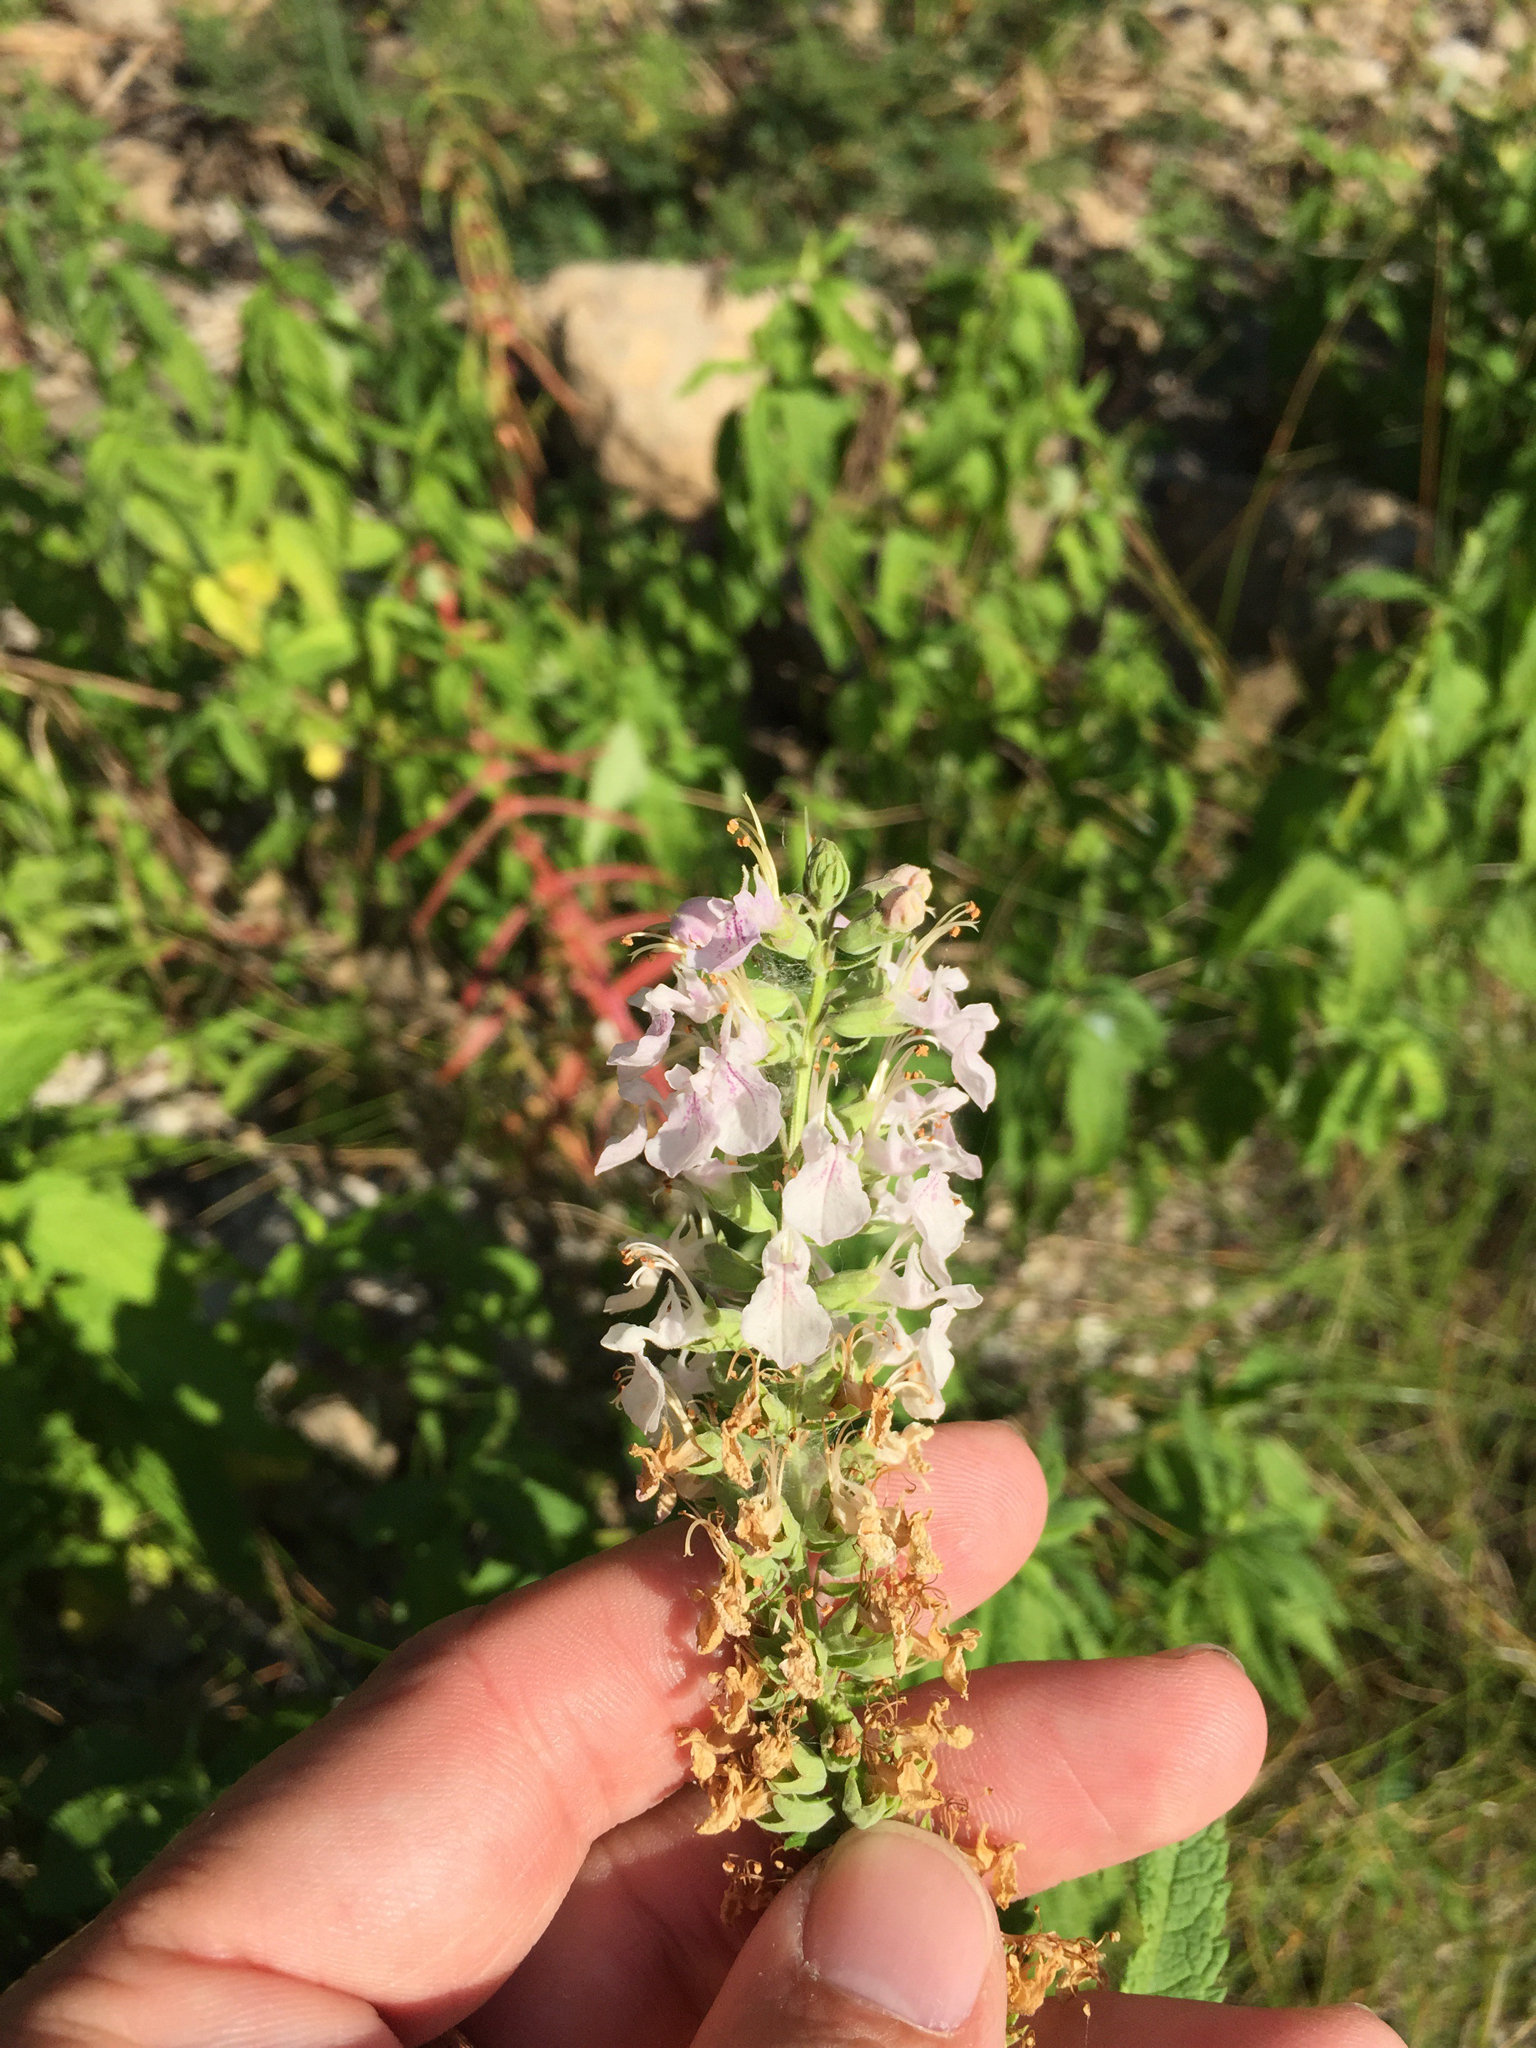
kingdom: Plantae
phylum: Tracheophyta
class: Magnoliopsida
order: Lamiales
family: Lamiaceae
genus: Teucrium
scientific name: Teucrium canadense
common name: American germander
